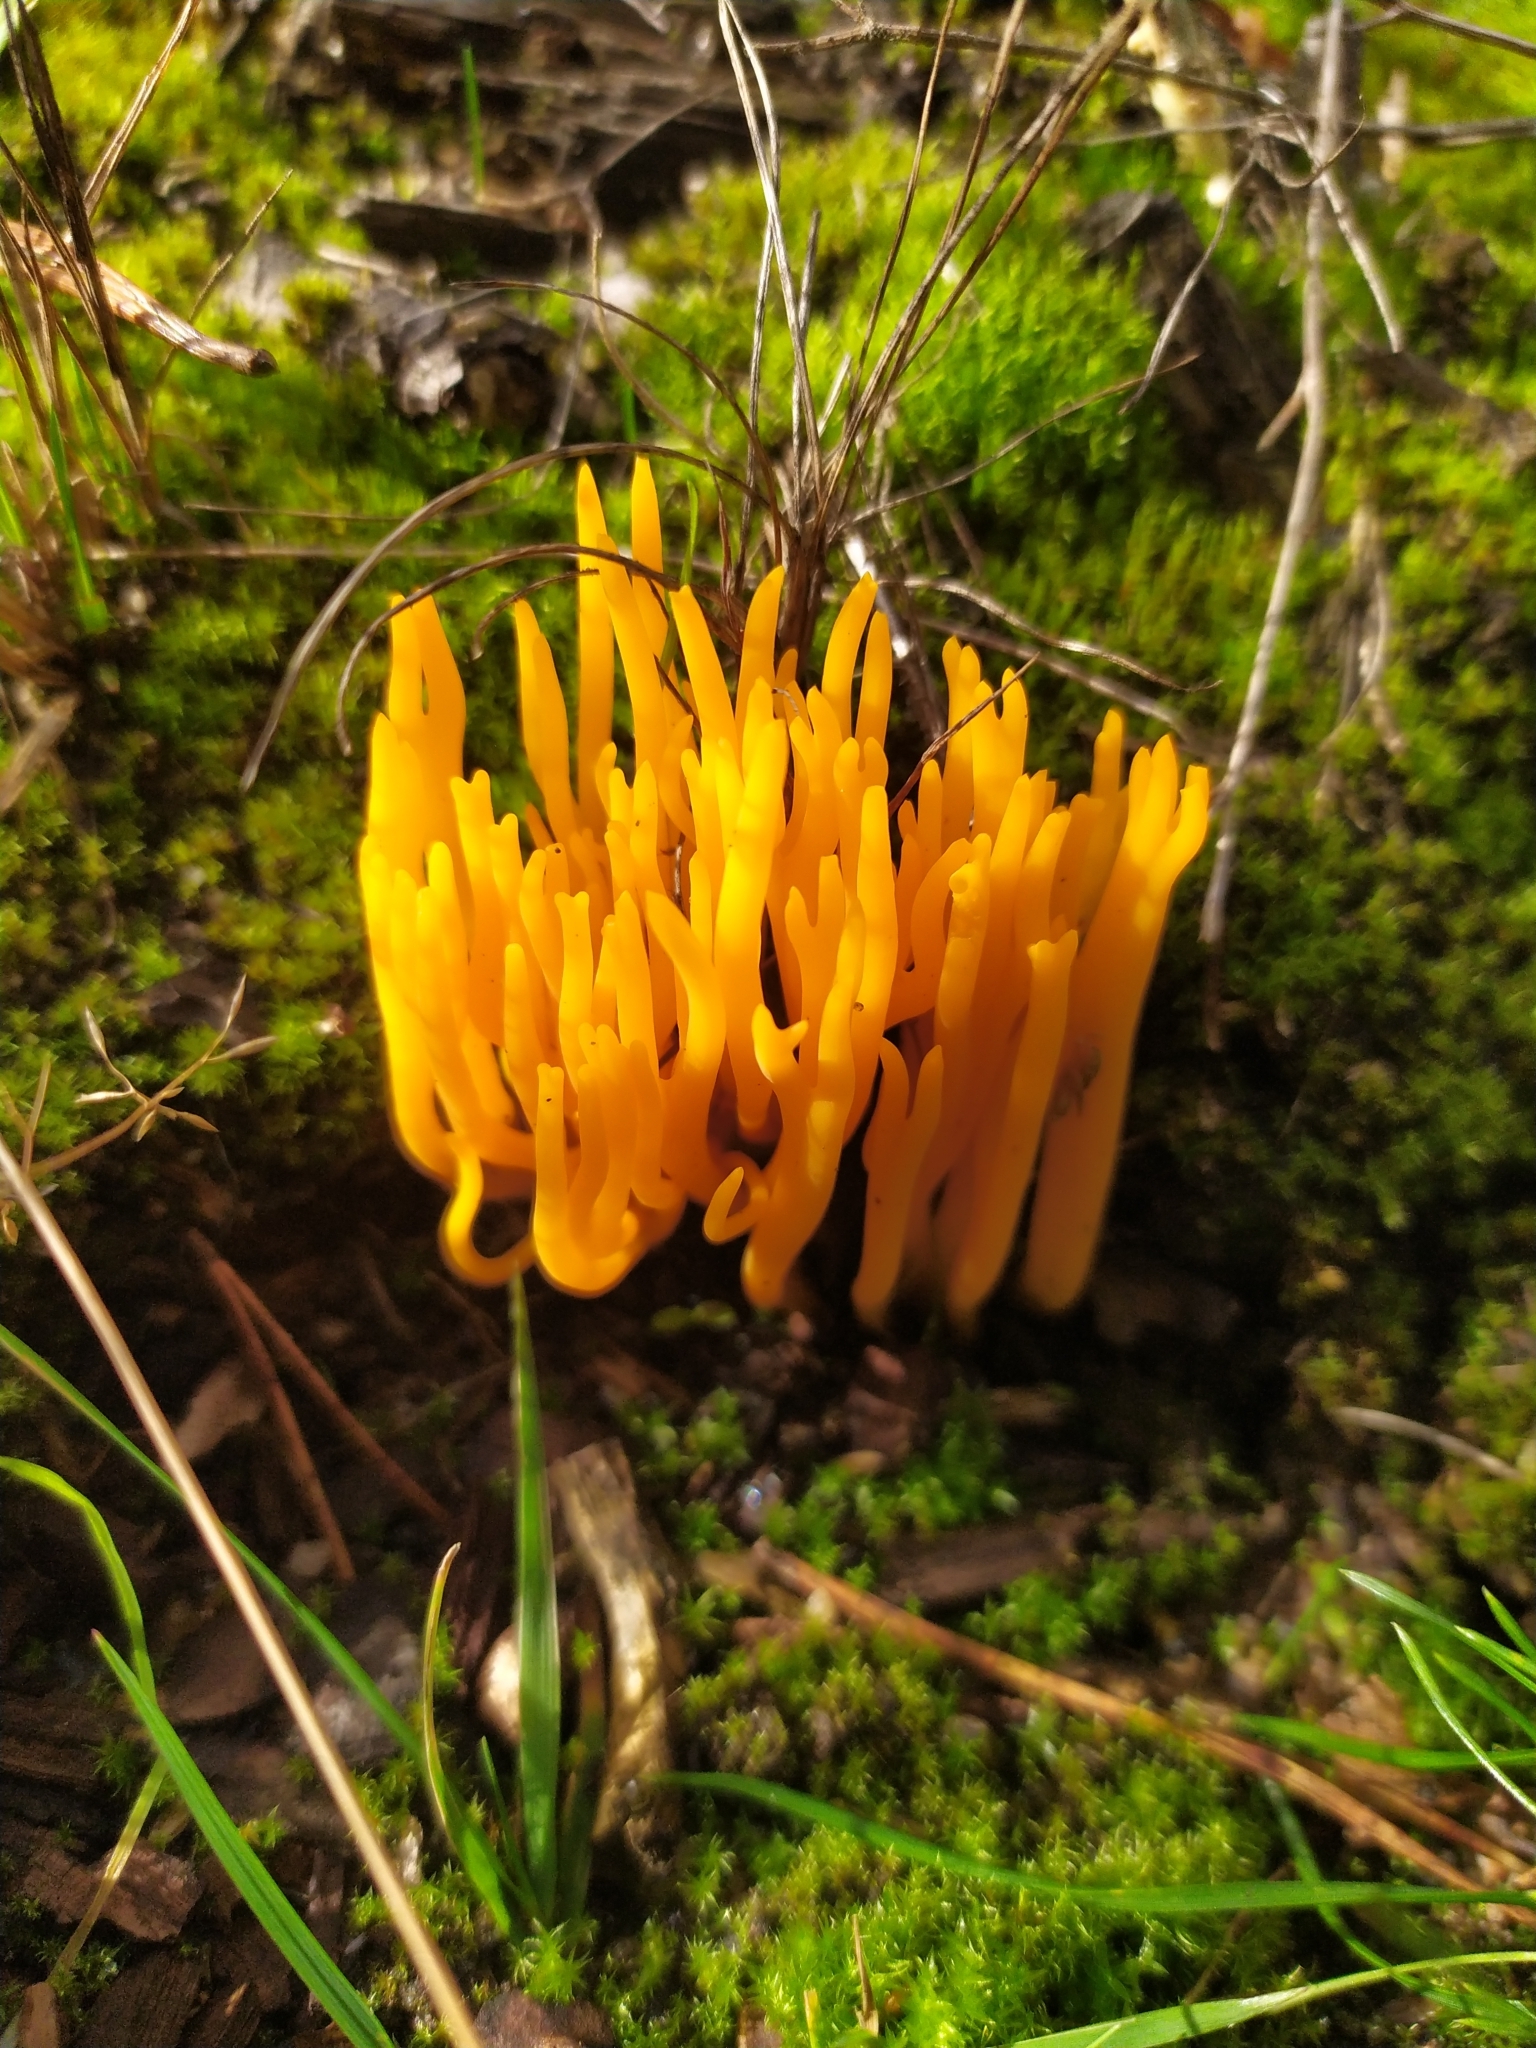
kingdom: Fungi
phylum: Basidiomycota
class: Dacrymycetes
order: Dacrymycetales
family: Dacrymycetaceae
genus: Calocera
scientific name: Calocera viscosa
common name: Yellow stagshorn
